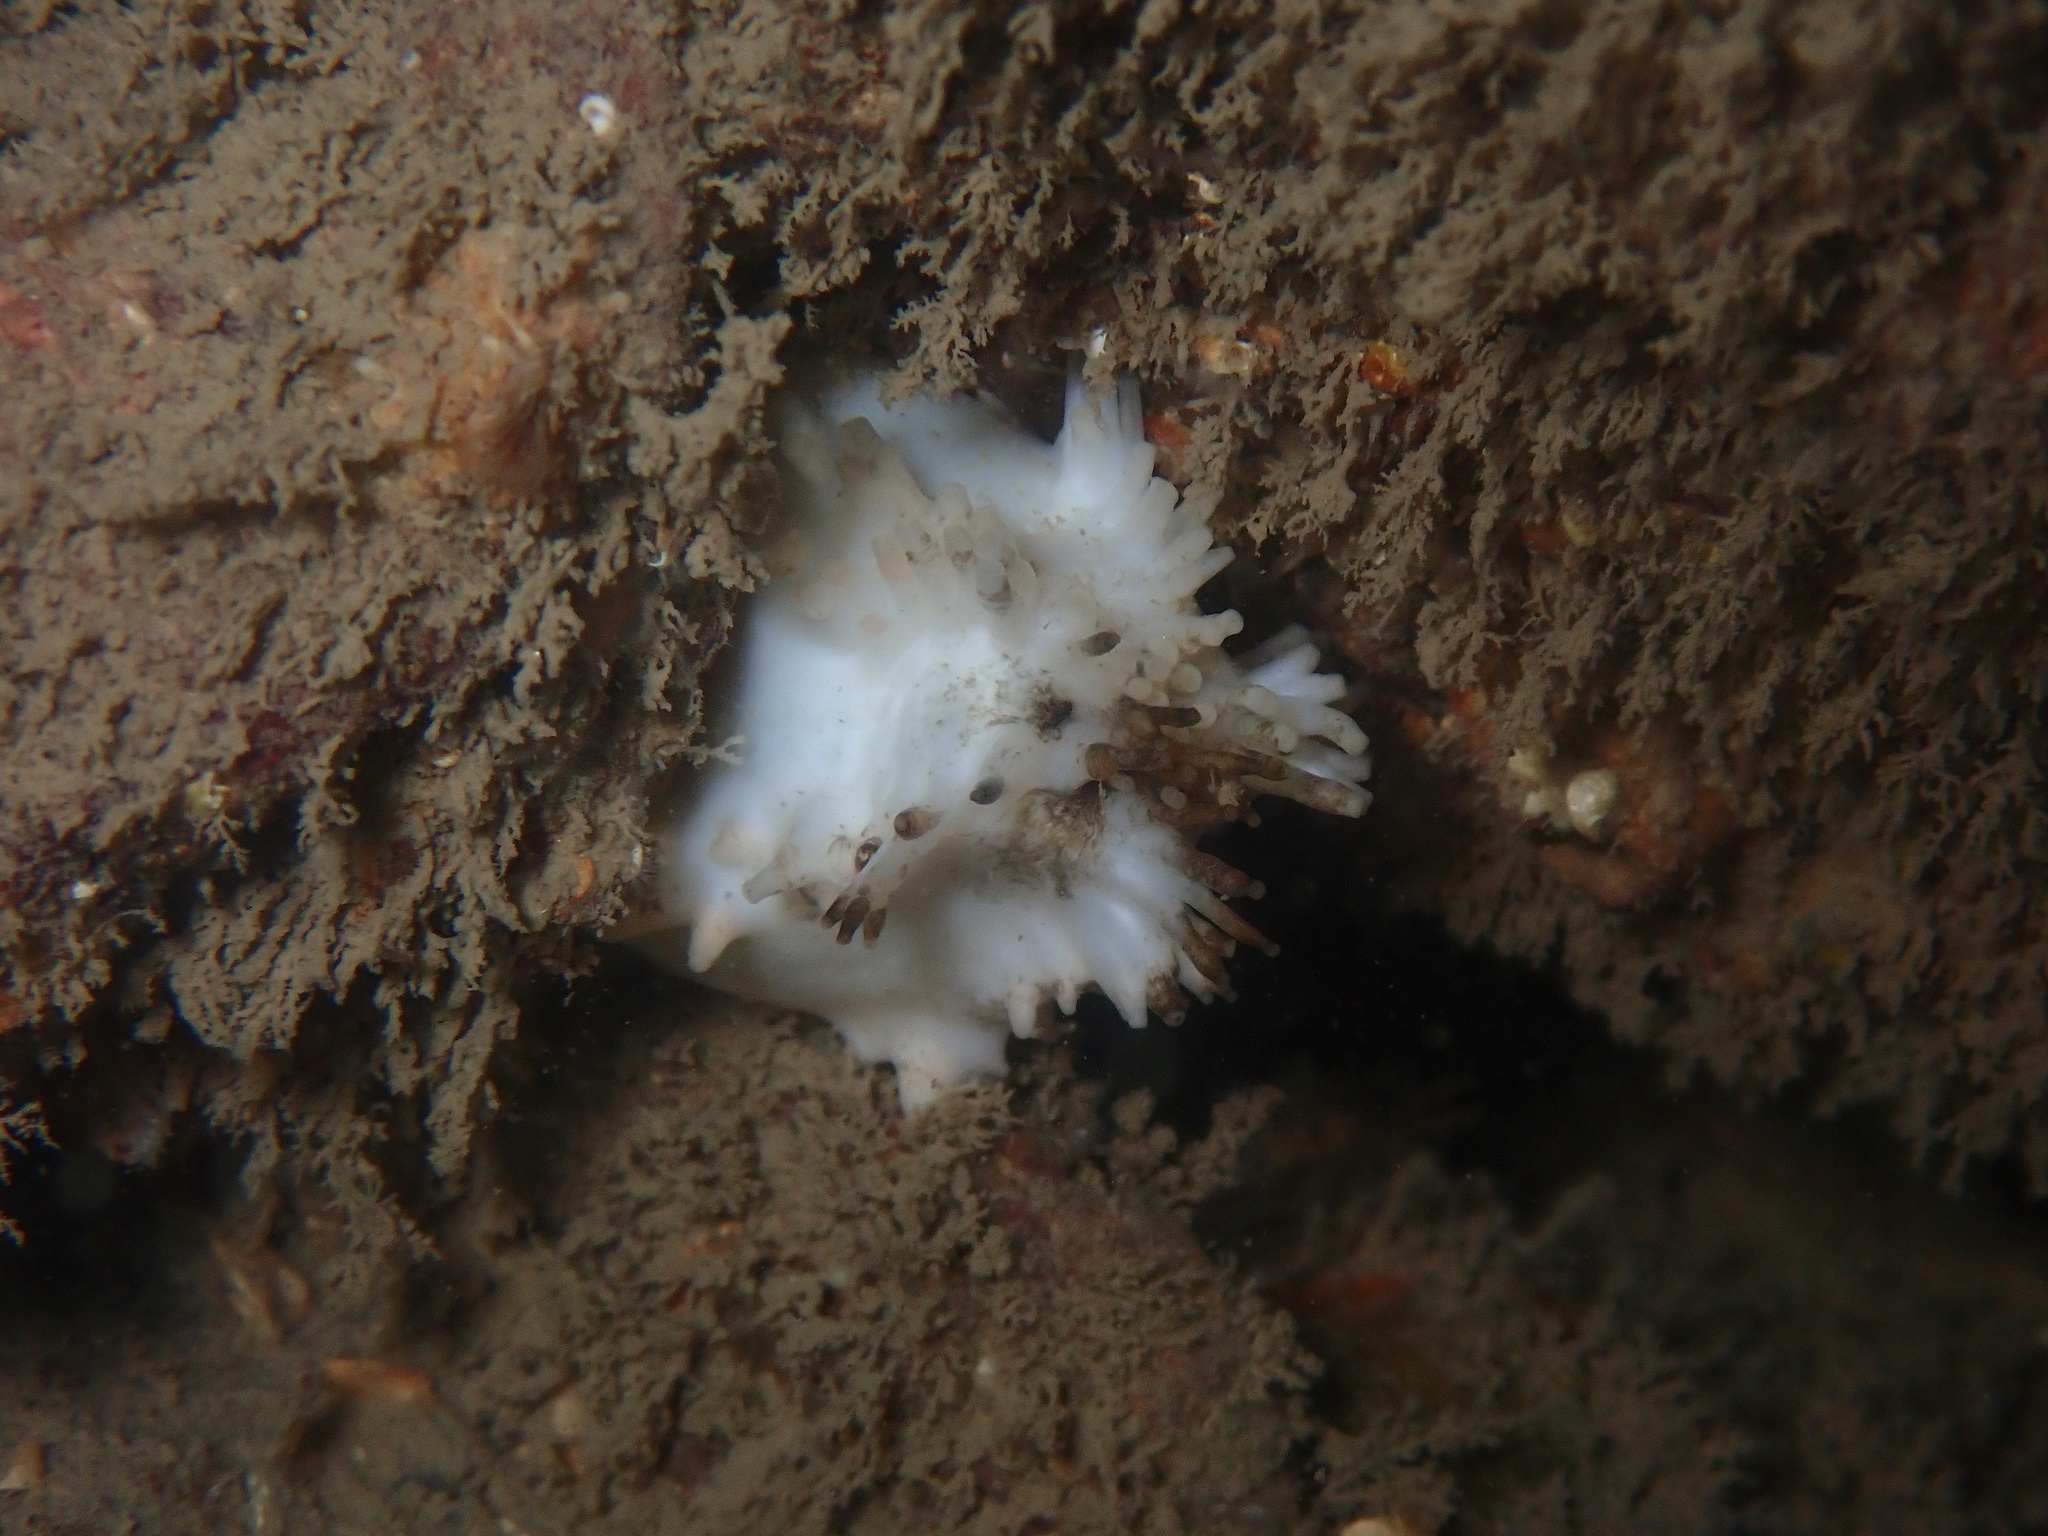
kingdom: Animalia
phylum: Echinodermata
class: Holothuroidea
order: Dendrochirotida
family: Cucumariidae
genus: Pawsonia
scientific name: Pawsonia saxicola
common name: Sea gherkin
